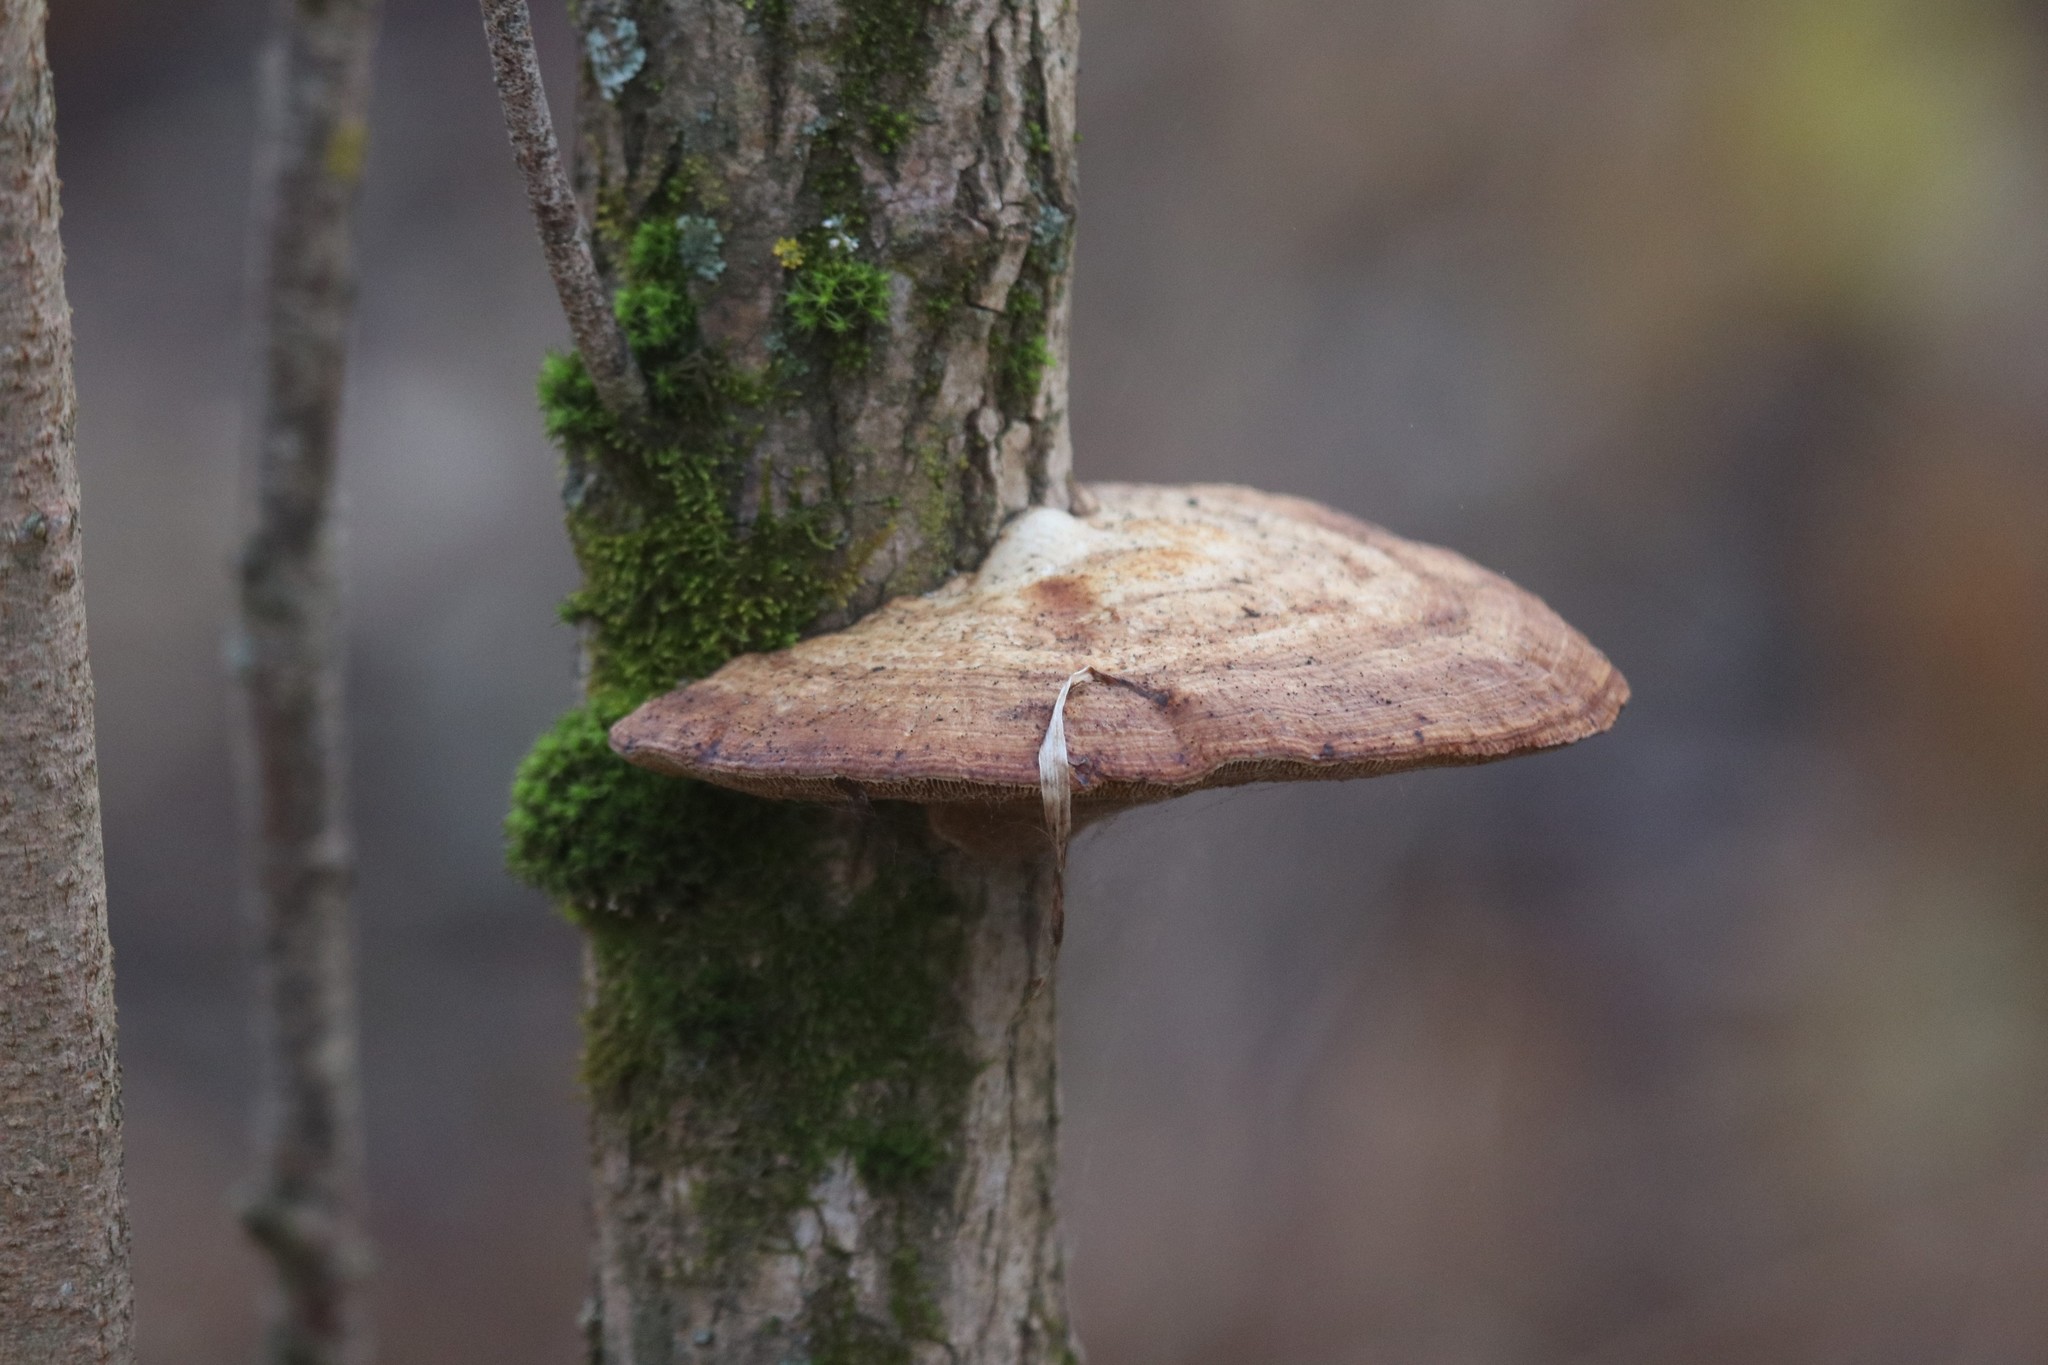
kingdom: Fungi
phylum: Basidiomycota
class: Agaricomycetes
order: Polyporales
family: Polyporaceae
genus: Daedaleopsis
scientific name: Daedaleopsis confragosa
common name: Blushing bracket
